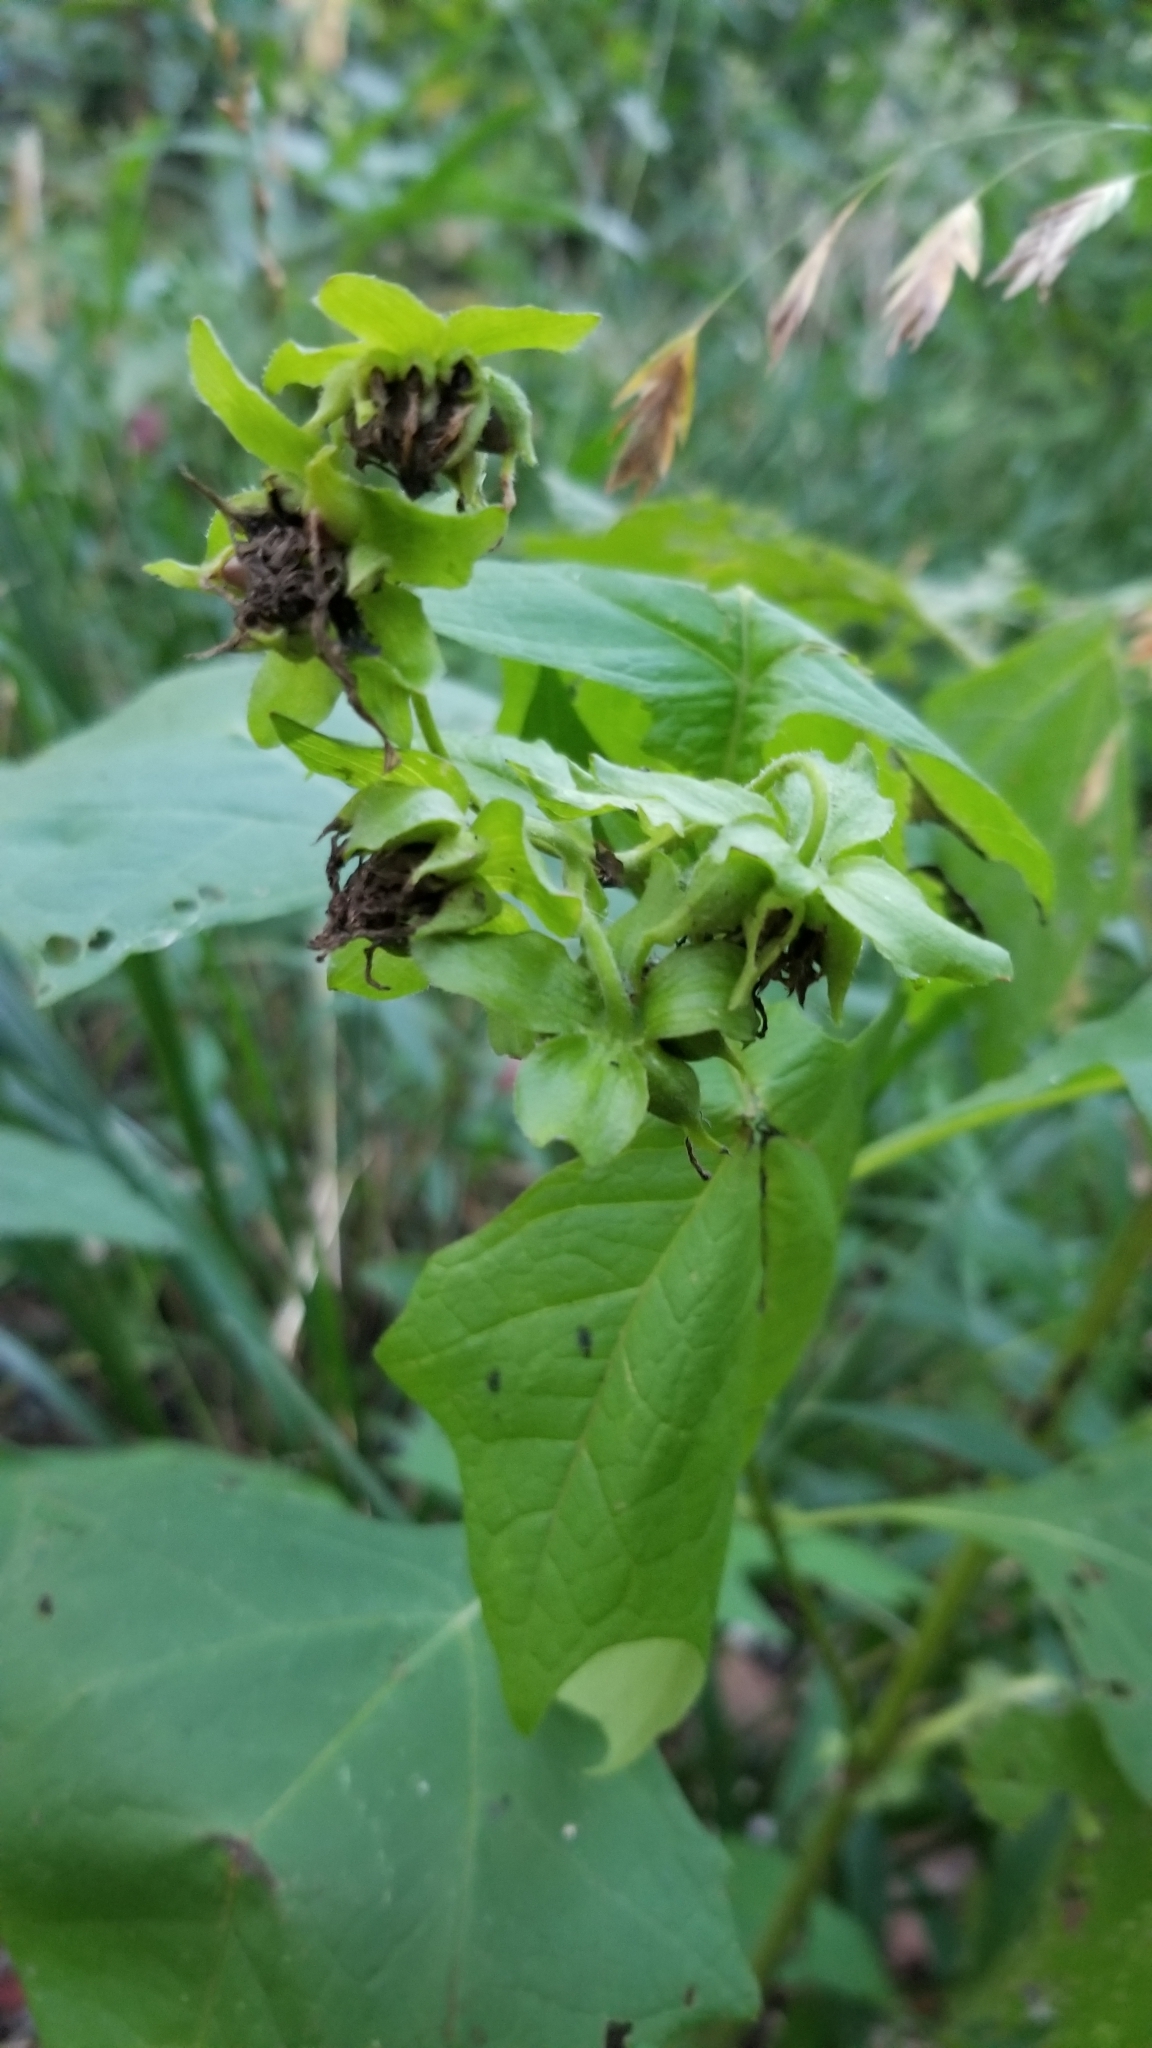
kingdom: Plantae
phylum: Tracheophyta
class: Magnoliopsida
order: Asterales
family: Asteraceae
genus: Smallanthus
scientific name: Smallanthus uvedalia
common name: Bear's-foot
